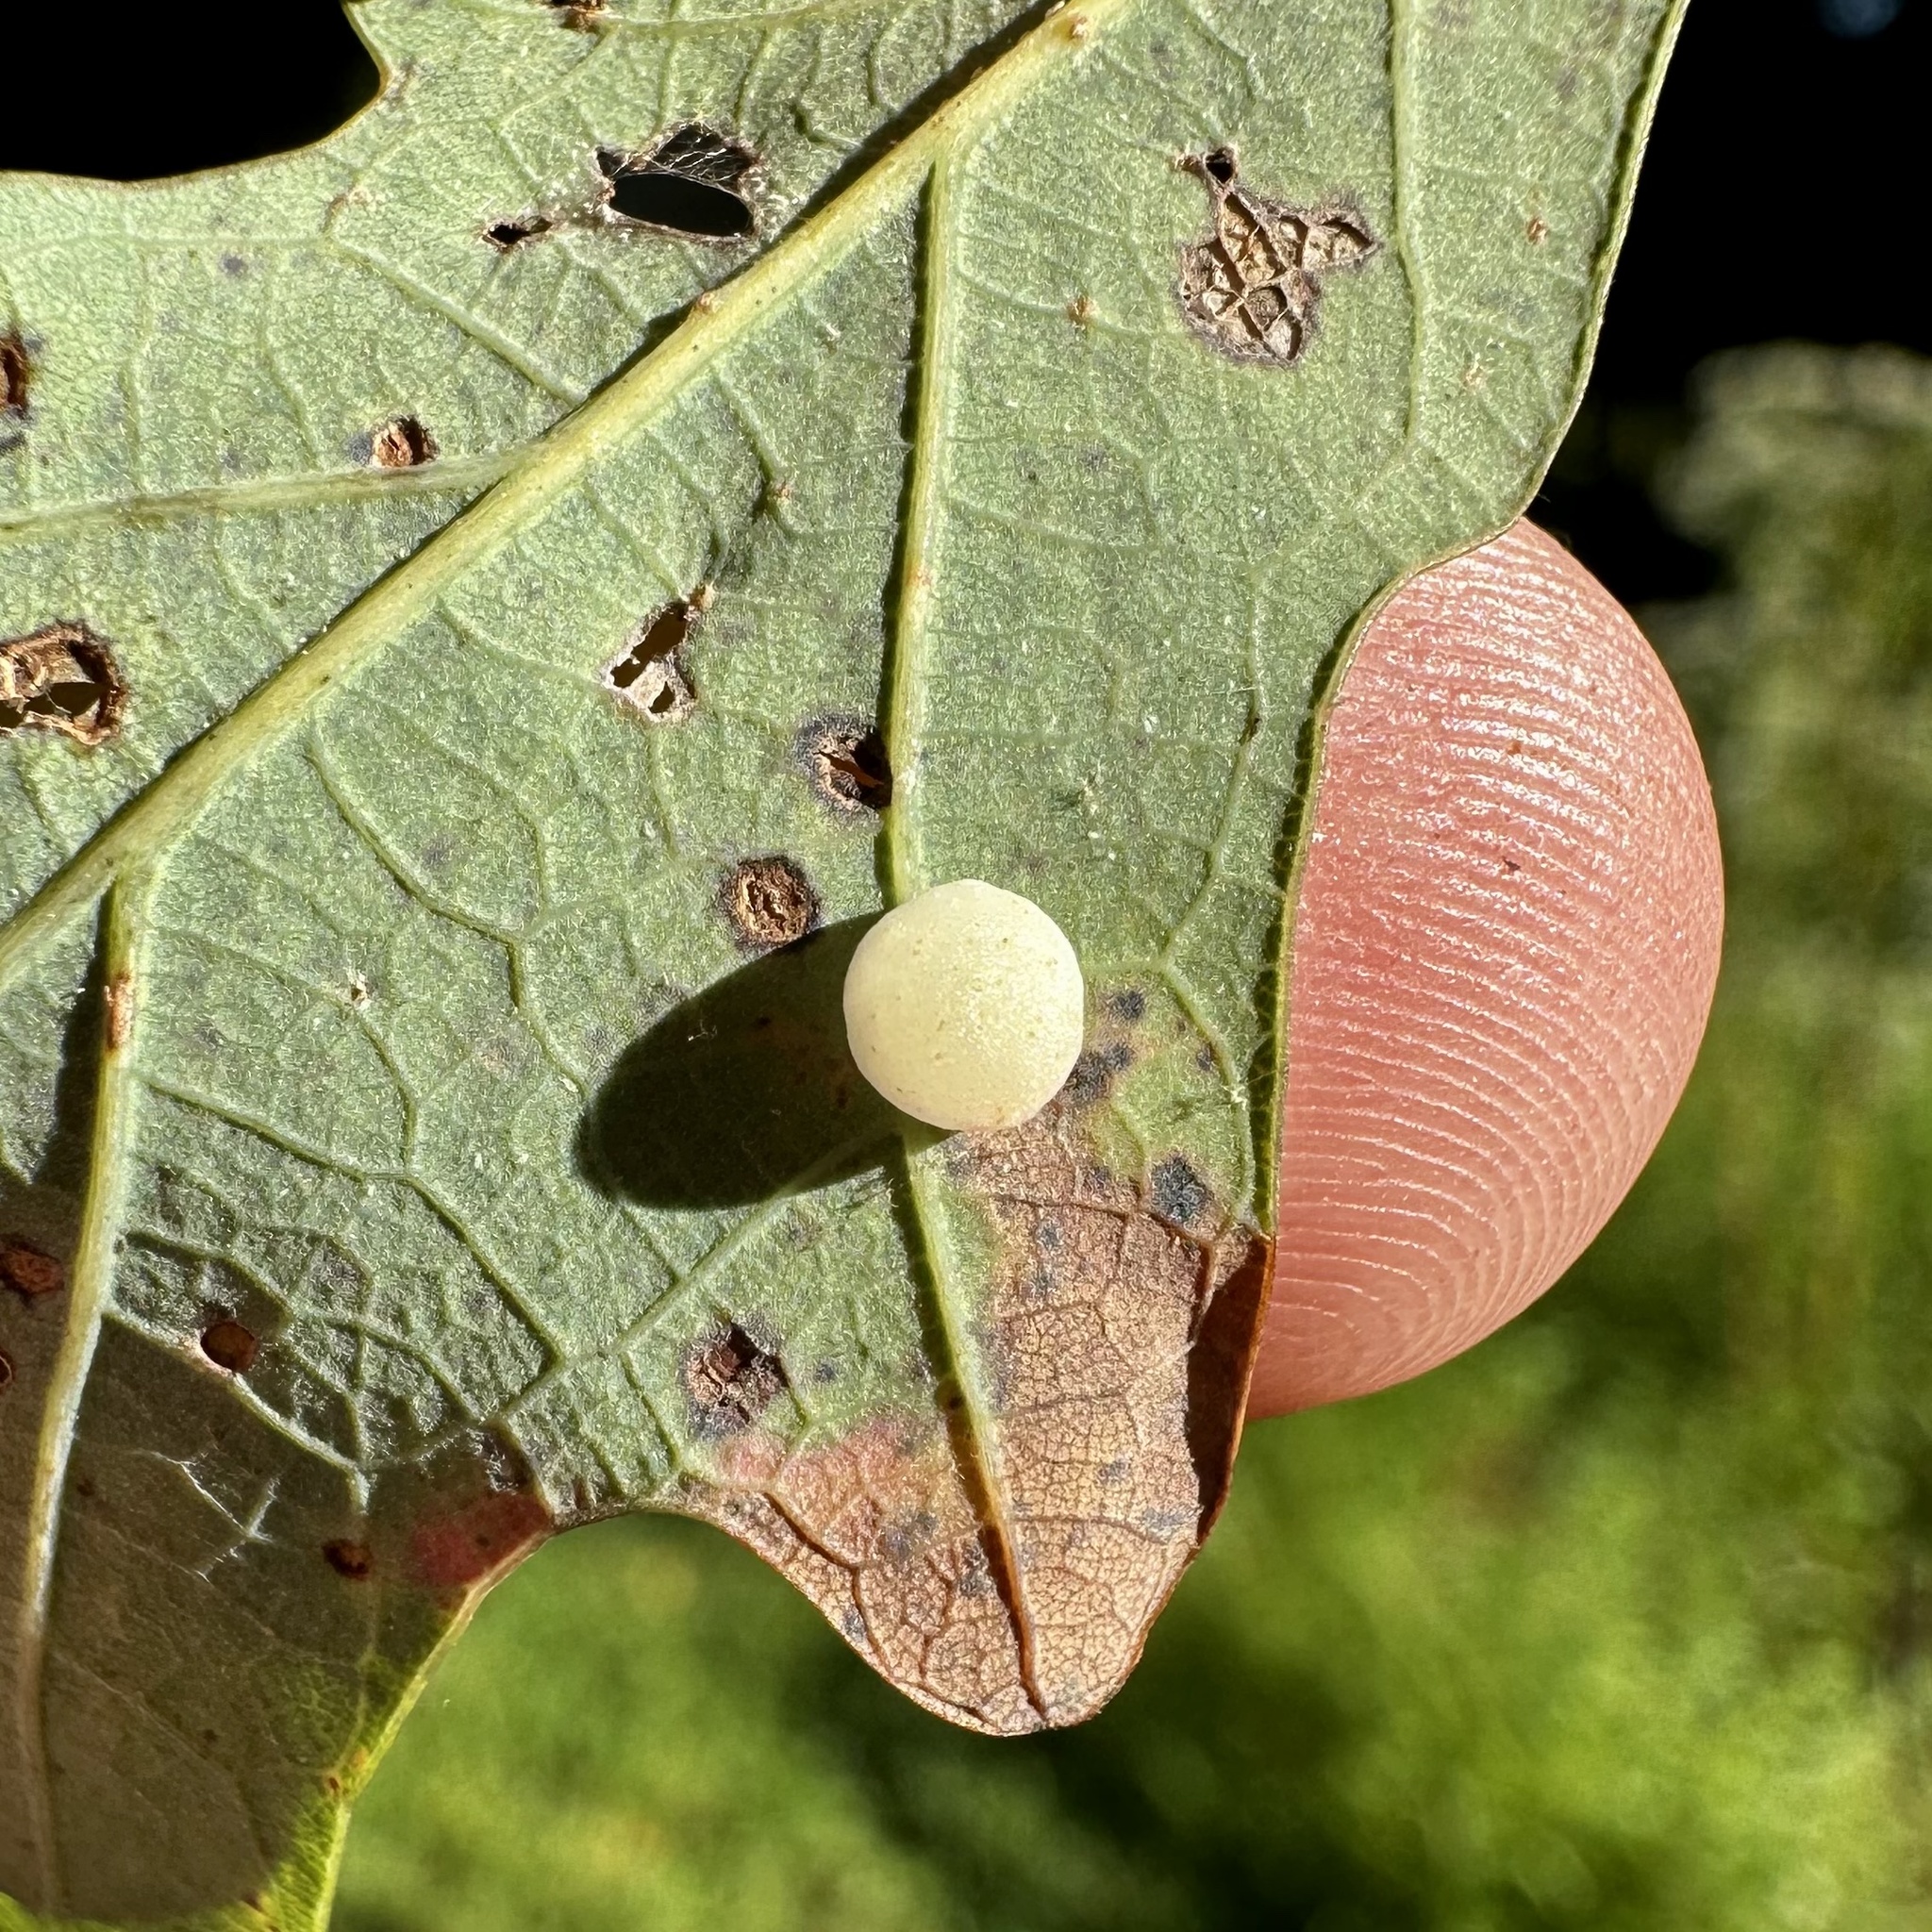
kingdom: Animalia
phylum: Arthropoda
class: Insecta
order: Hymenoptera
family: Cynipidae
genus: Phylloteras
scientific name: Phylloteras
